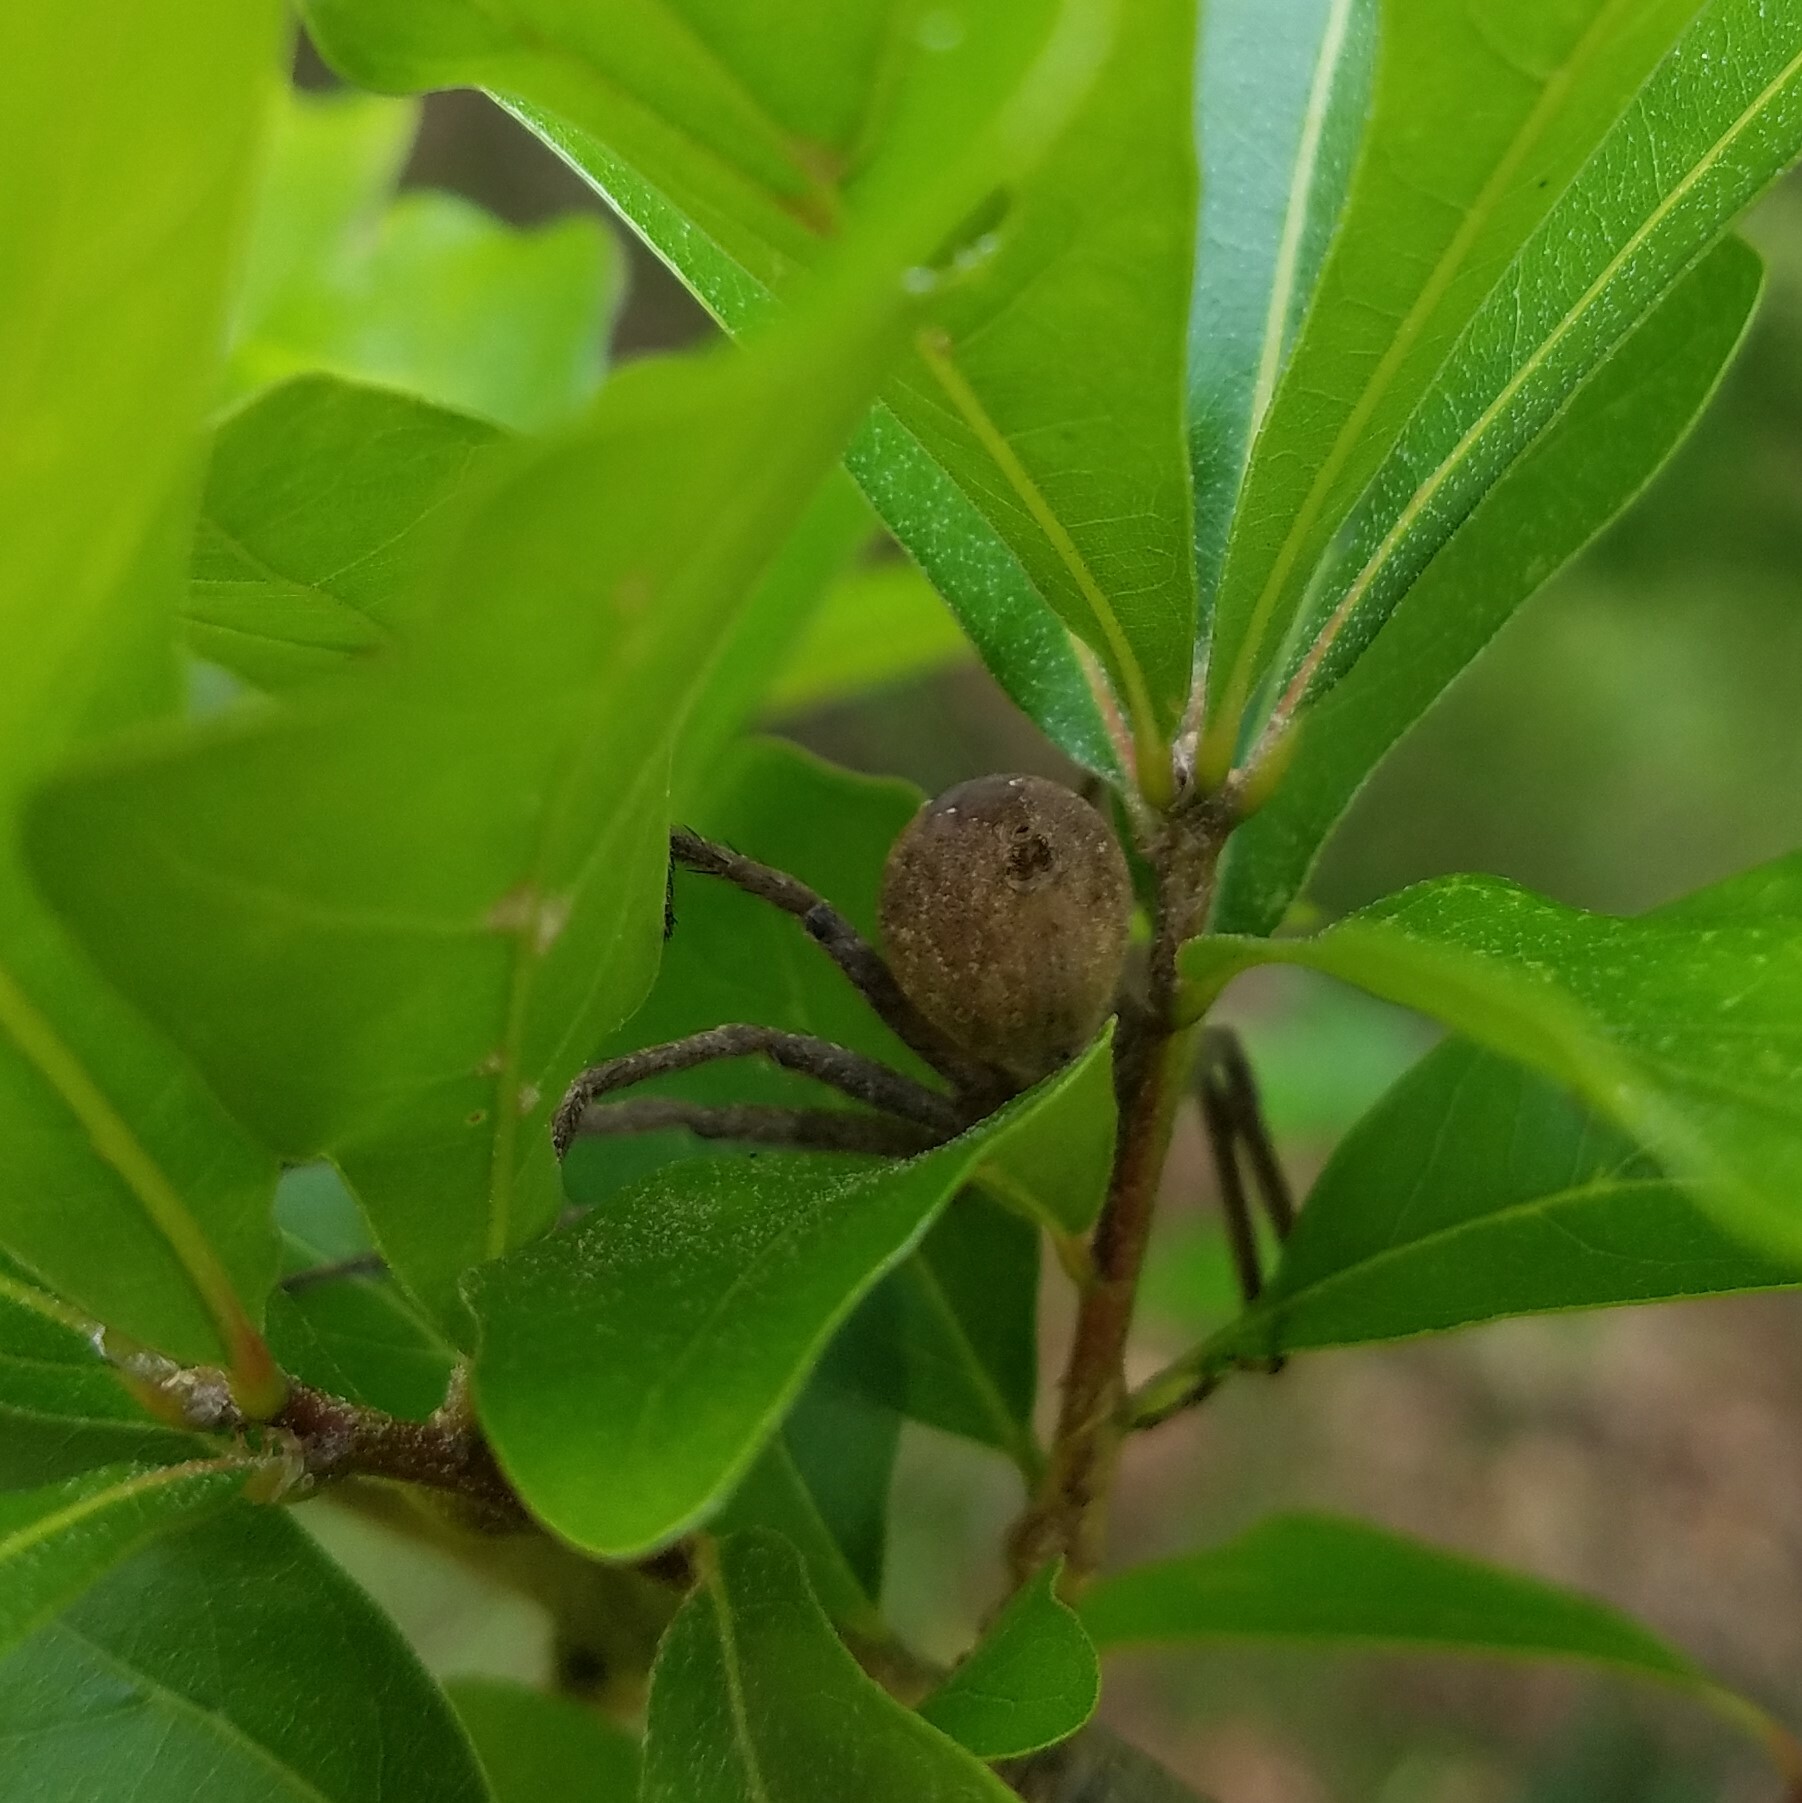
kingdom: Animalia
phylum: Arthropoda
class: Arachnida
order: Araneae
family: Pisauridae
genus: Pisaurina
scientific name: Pisaurina mira
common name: American nursery web spider
